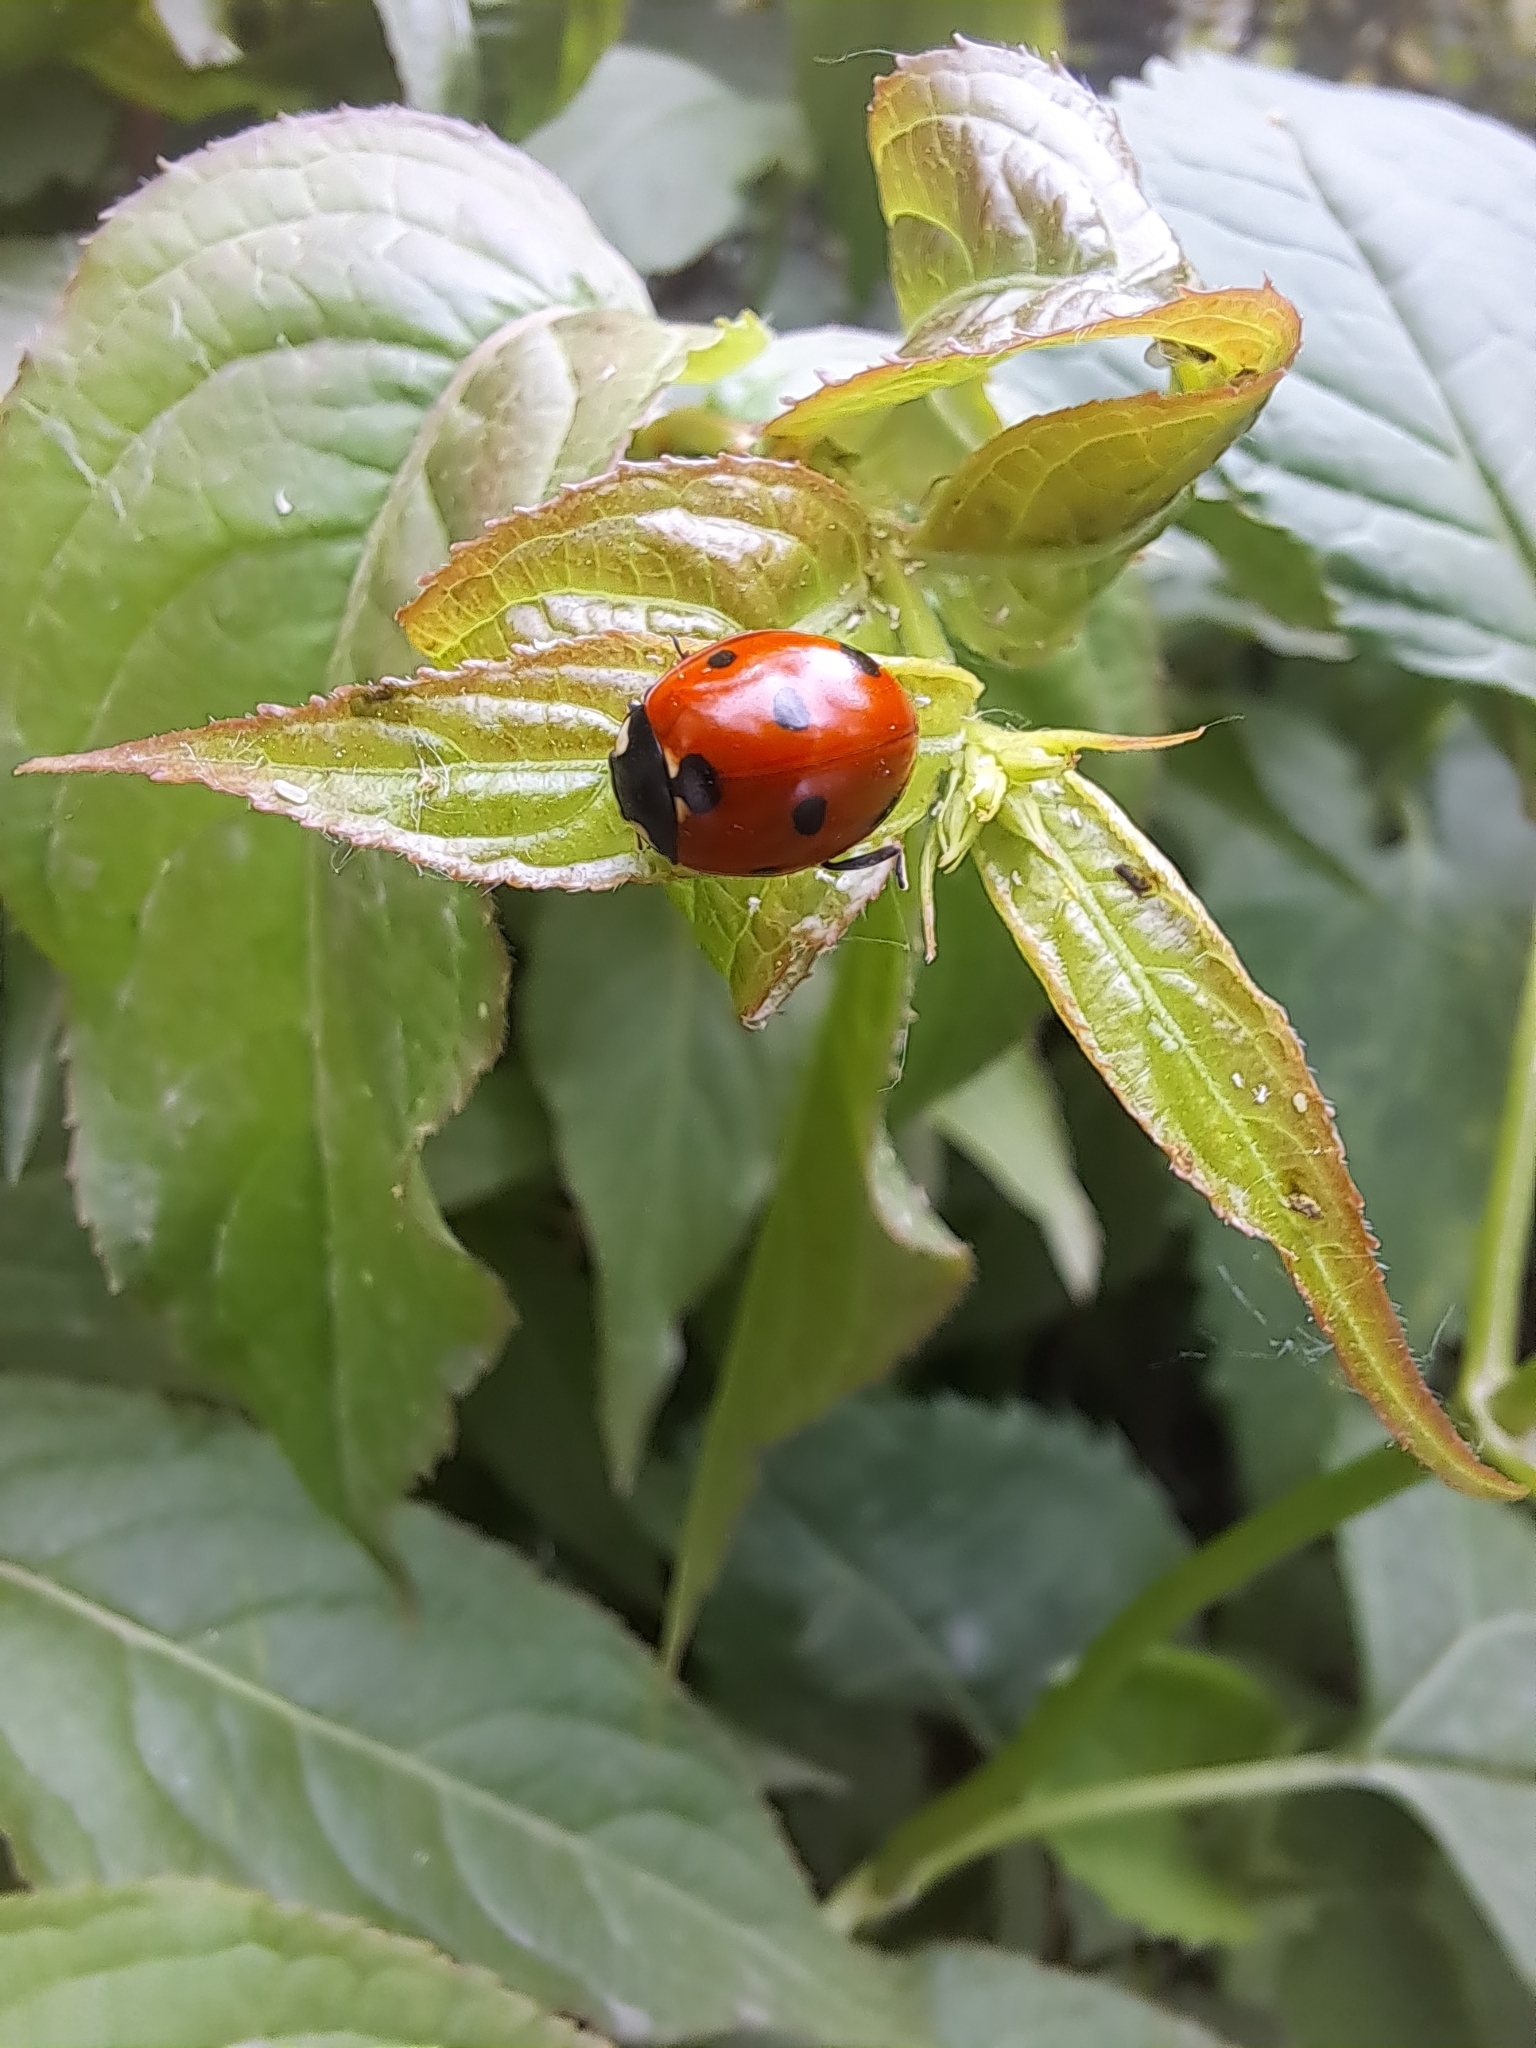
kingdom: Animalia
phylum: Arthropoda
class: Insecta
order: Coleoptera
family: Coccinellidae
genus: Coccinella
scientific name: Coccinella septempunctata
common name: Sevenspotted lady beetle
